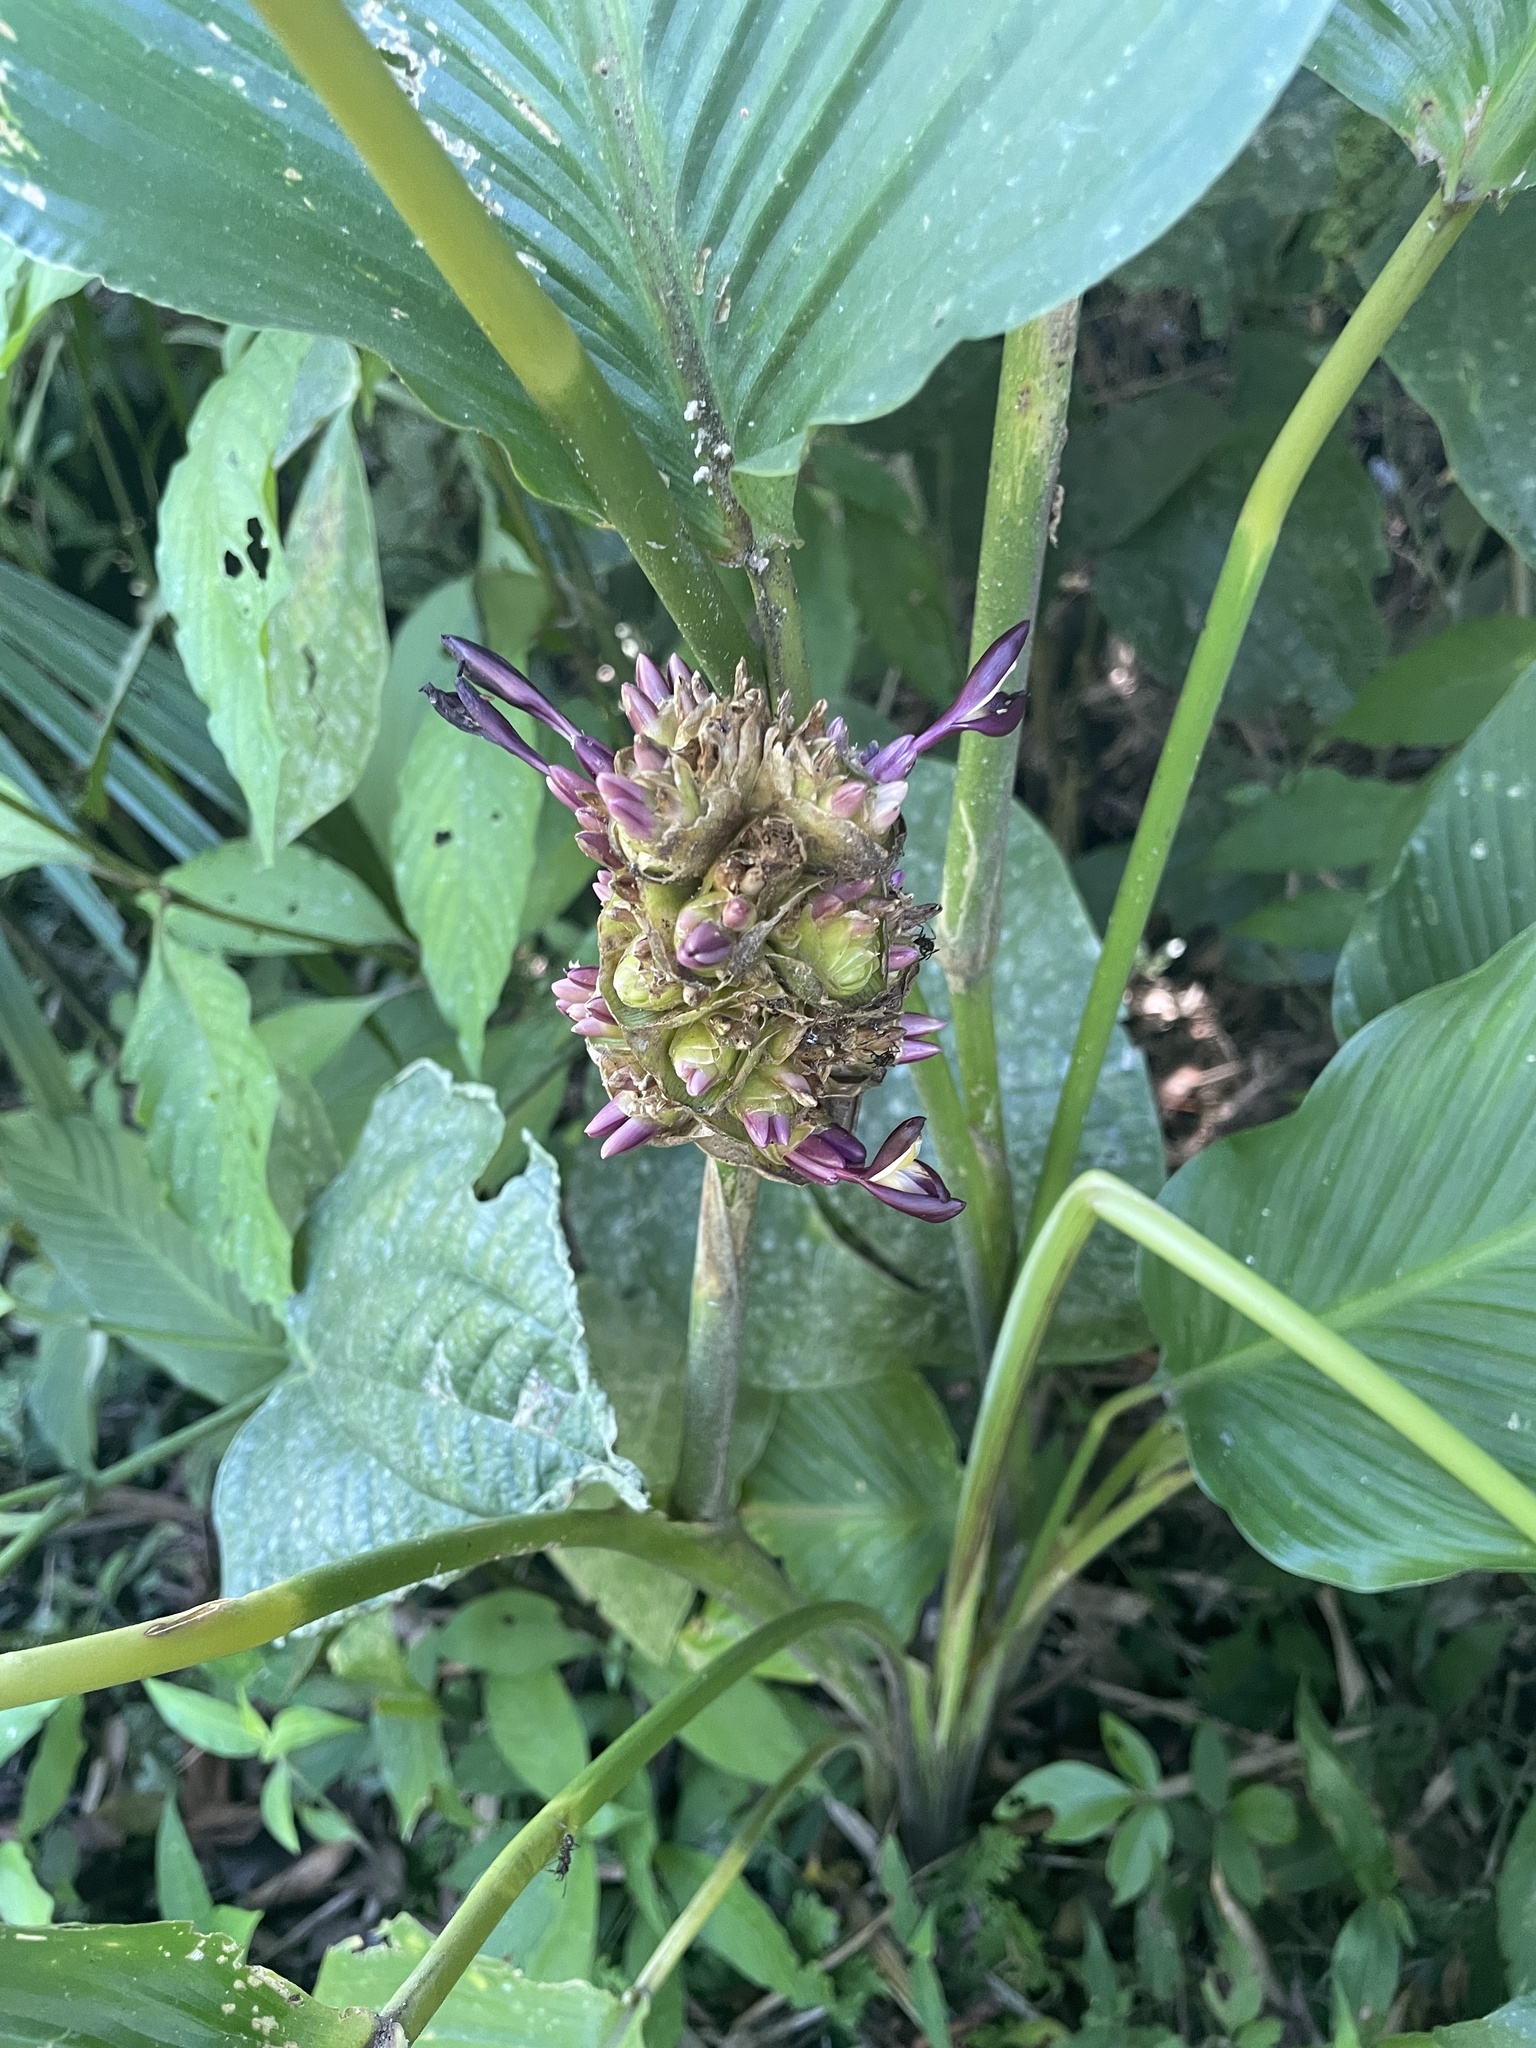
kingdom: Plantae
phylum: Tracheophyta
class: Liliopsida
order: Zingiberales
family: Marantaceae
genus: Goeppertia
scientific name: Goeppertia latifolia
